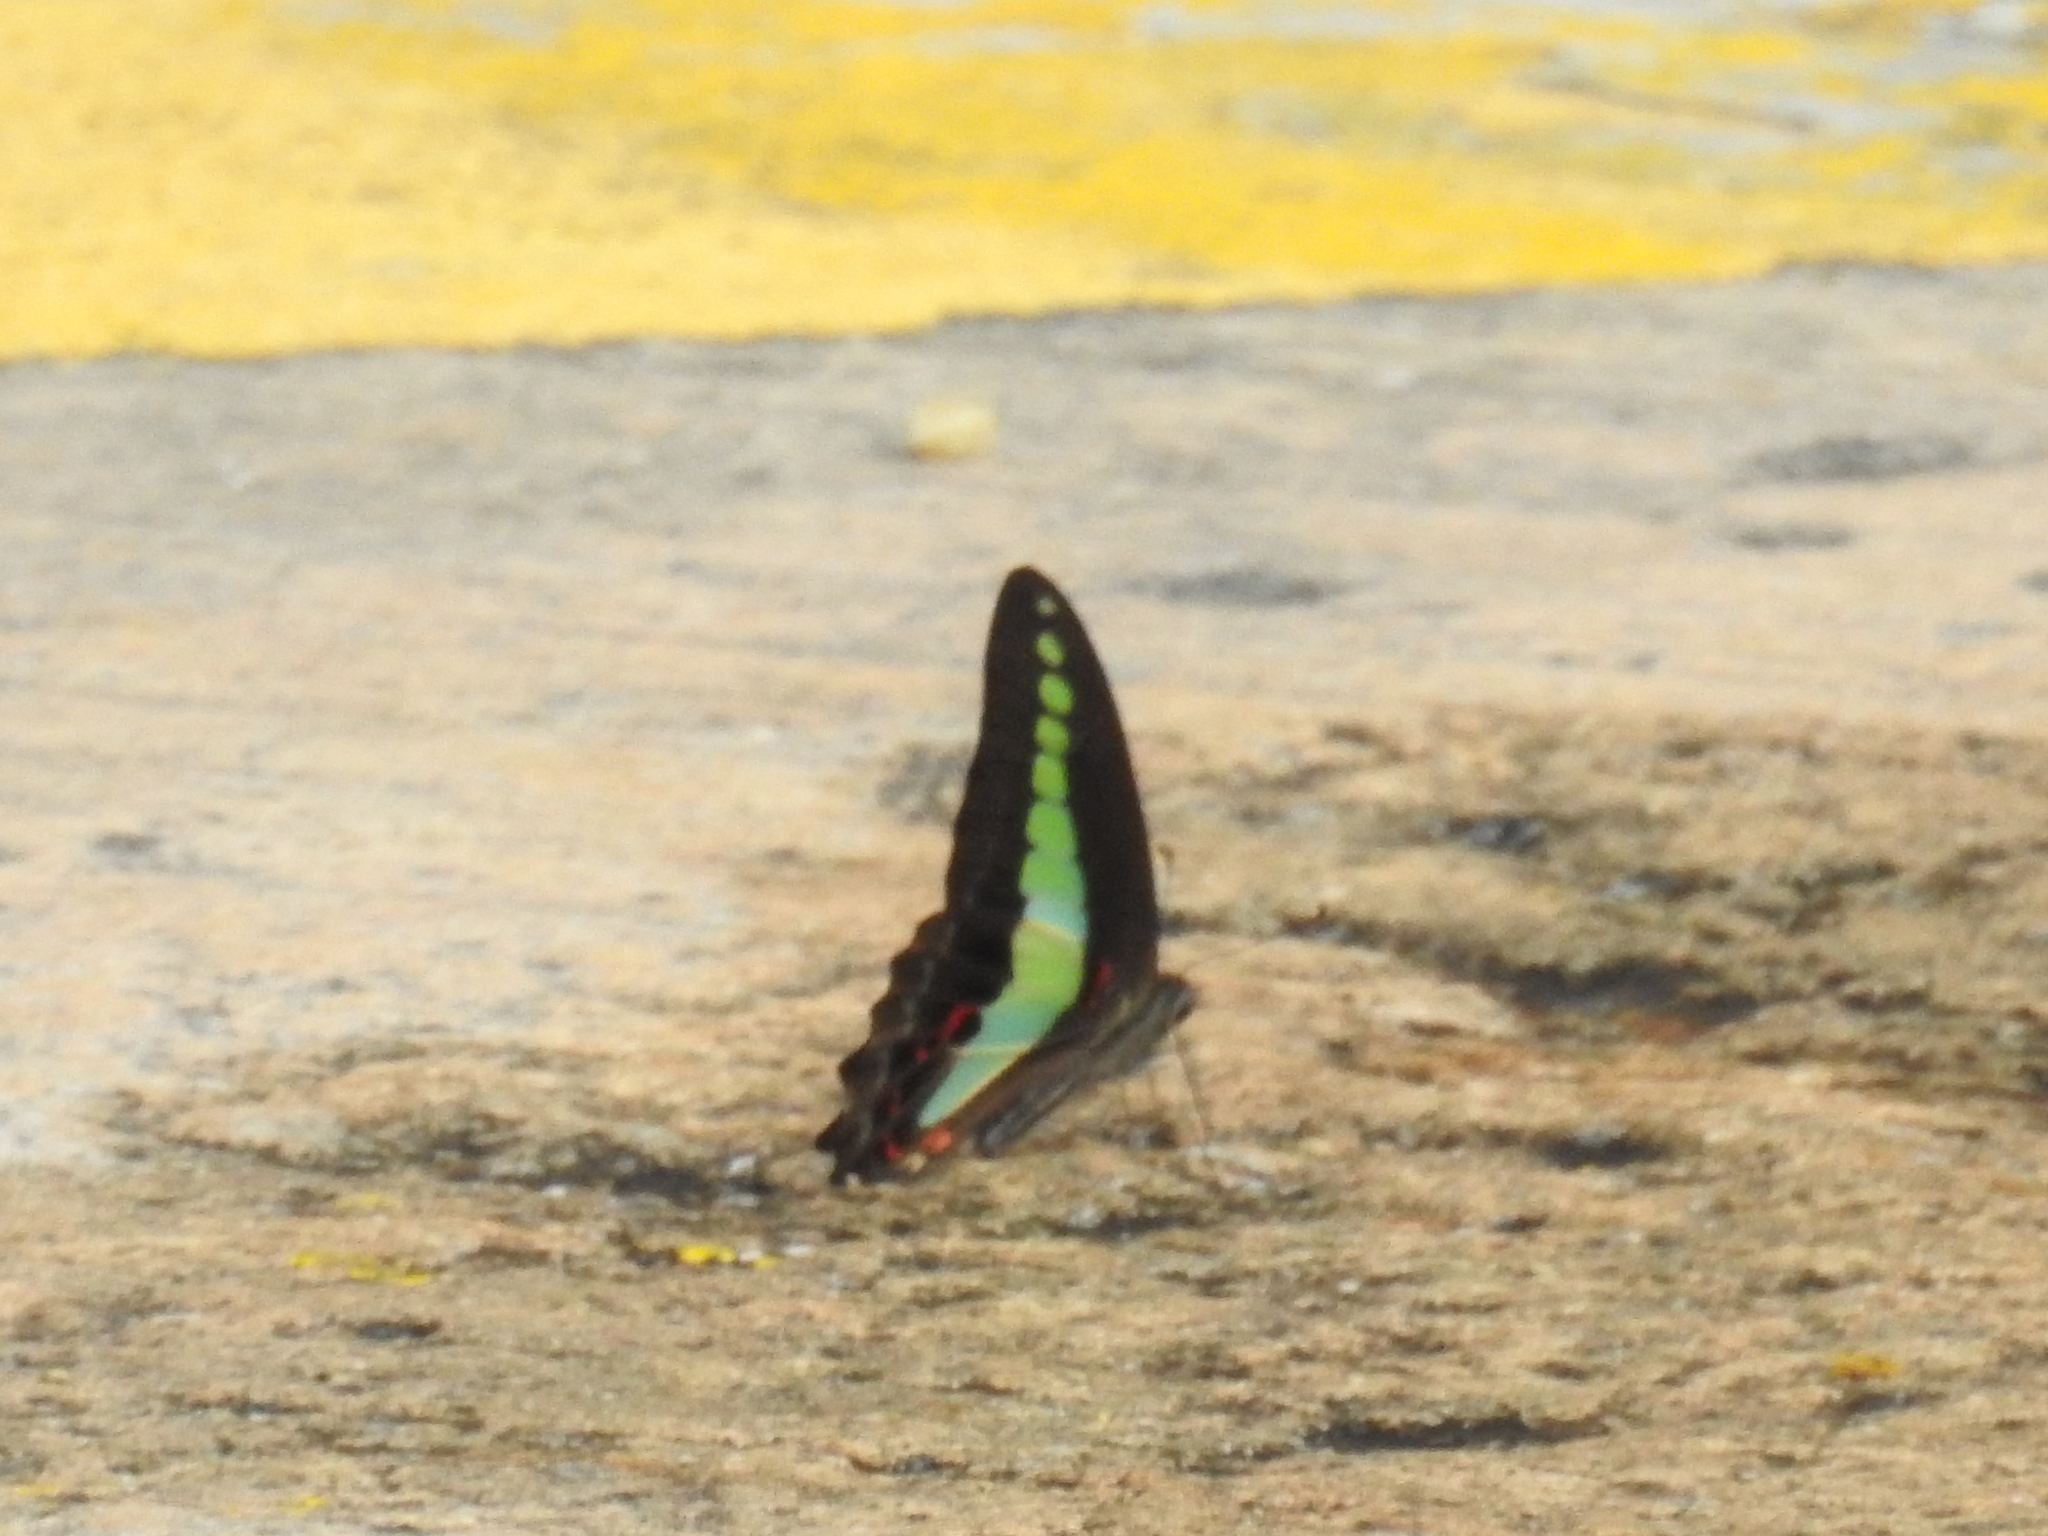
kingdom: Fungi
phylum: Ascomycota
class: Sordariomycetes
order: Microascales
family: Microascaceae
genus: Graphium
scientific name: Graphium sarpedon
